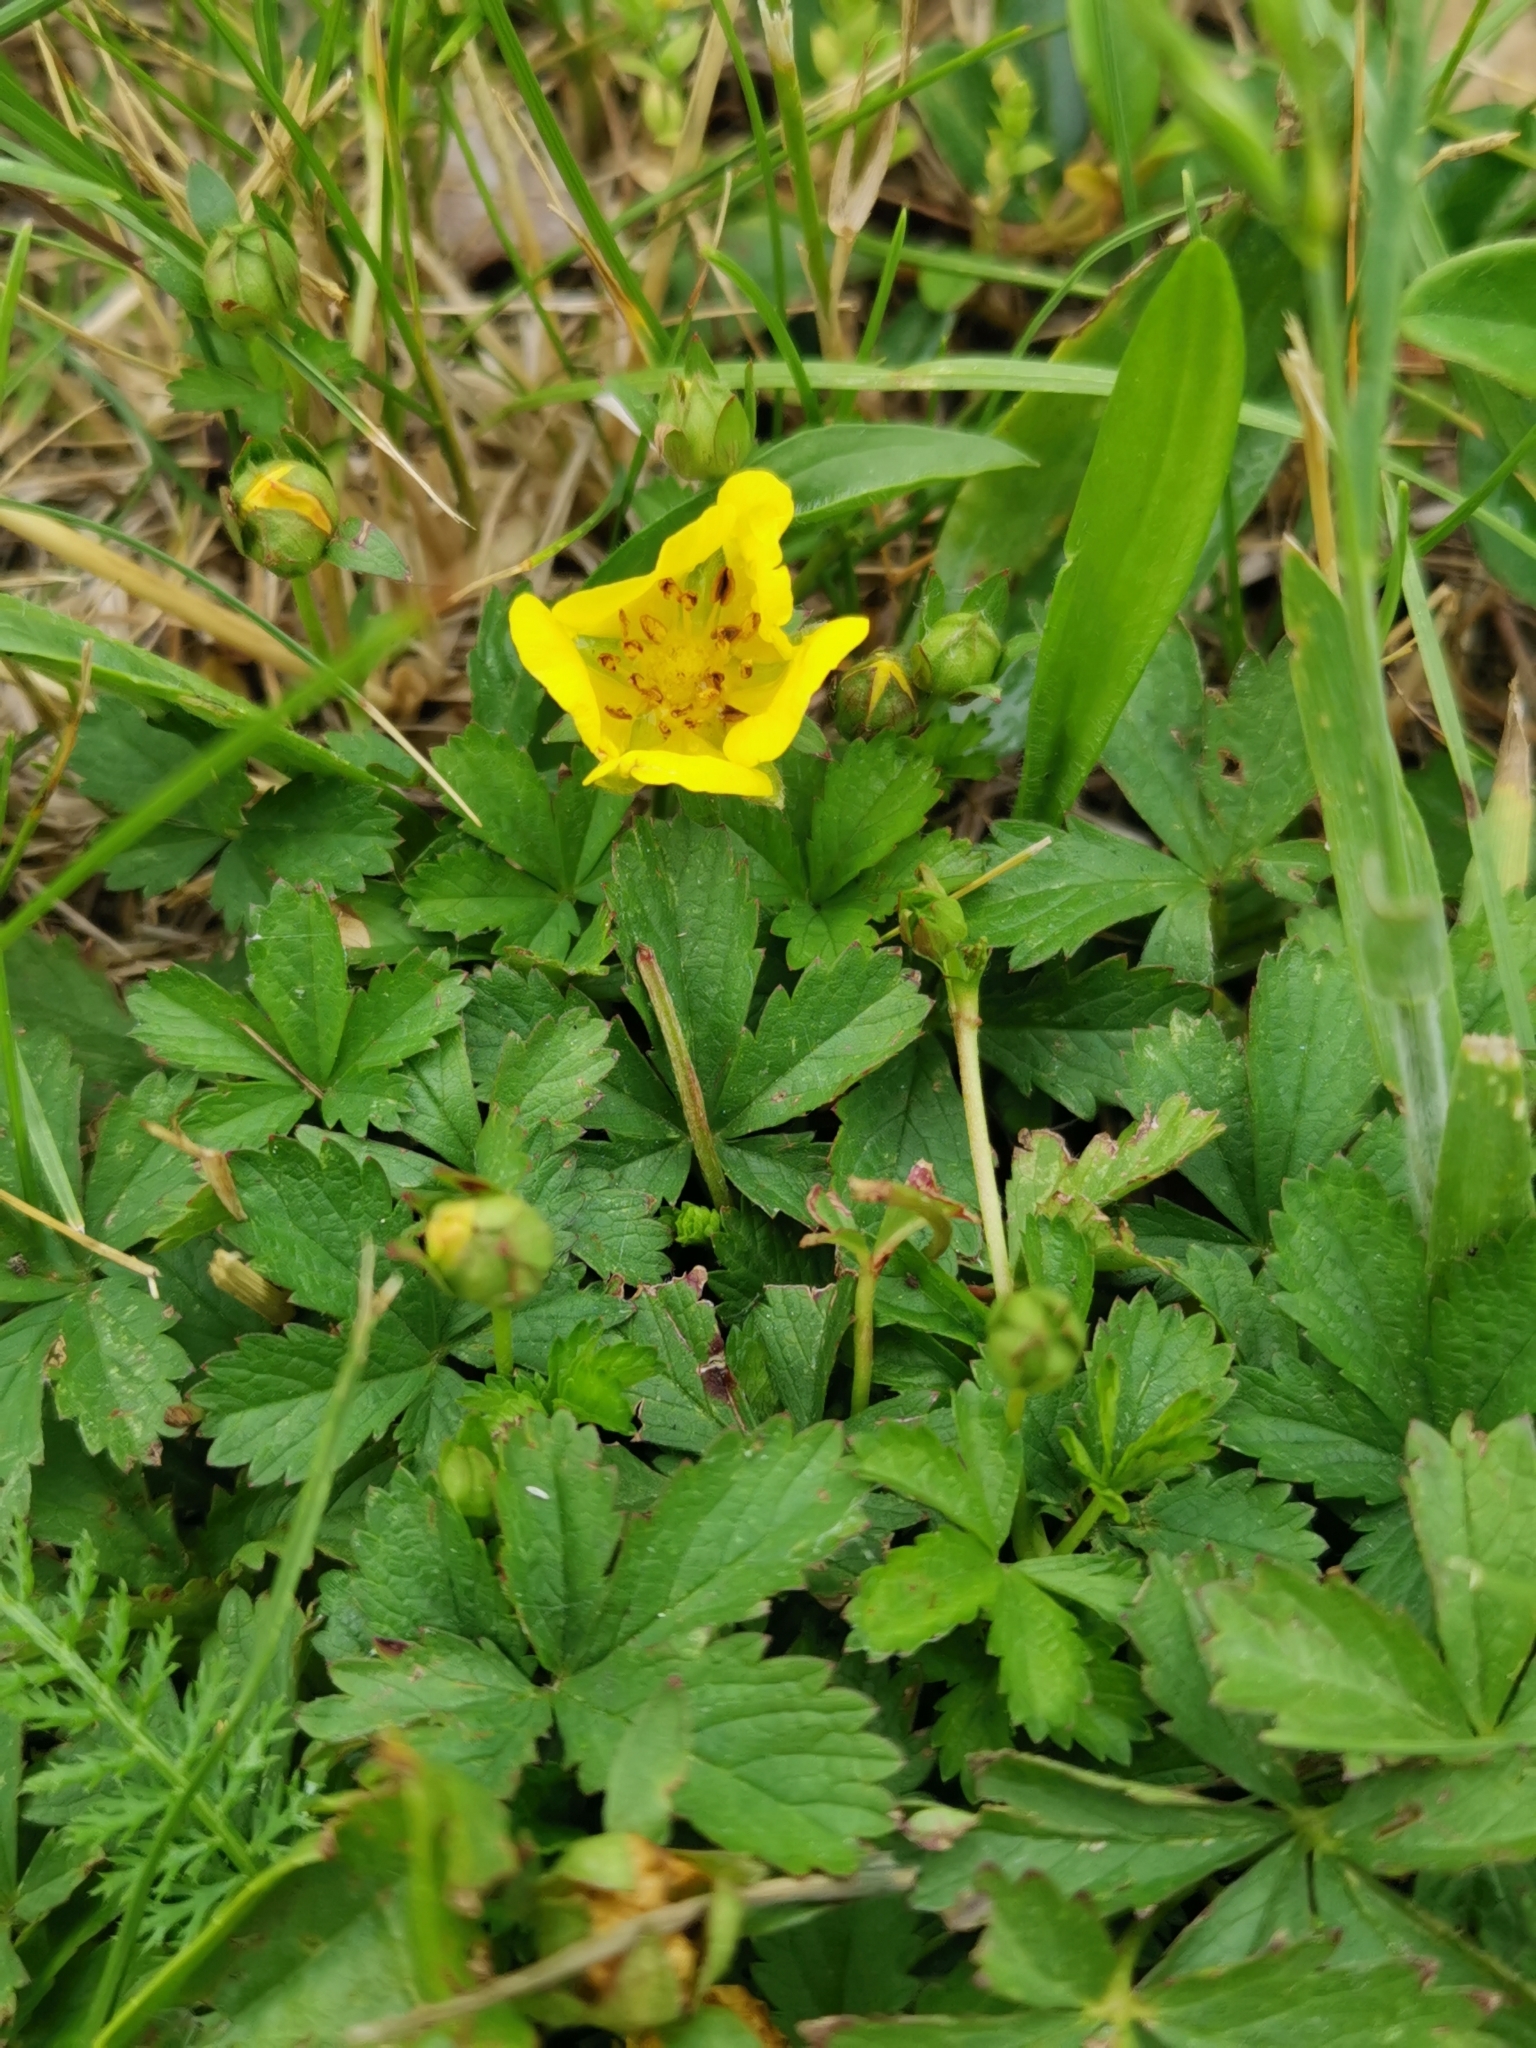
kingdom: Plantae
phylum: Tracheophyta
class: Magnoliopsida
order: Rosales
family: Rosaceae
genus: Potentilla
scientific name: Potentilla reptans
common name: Creeping cinquefoil
